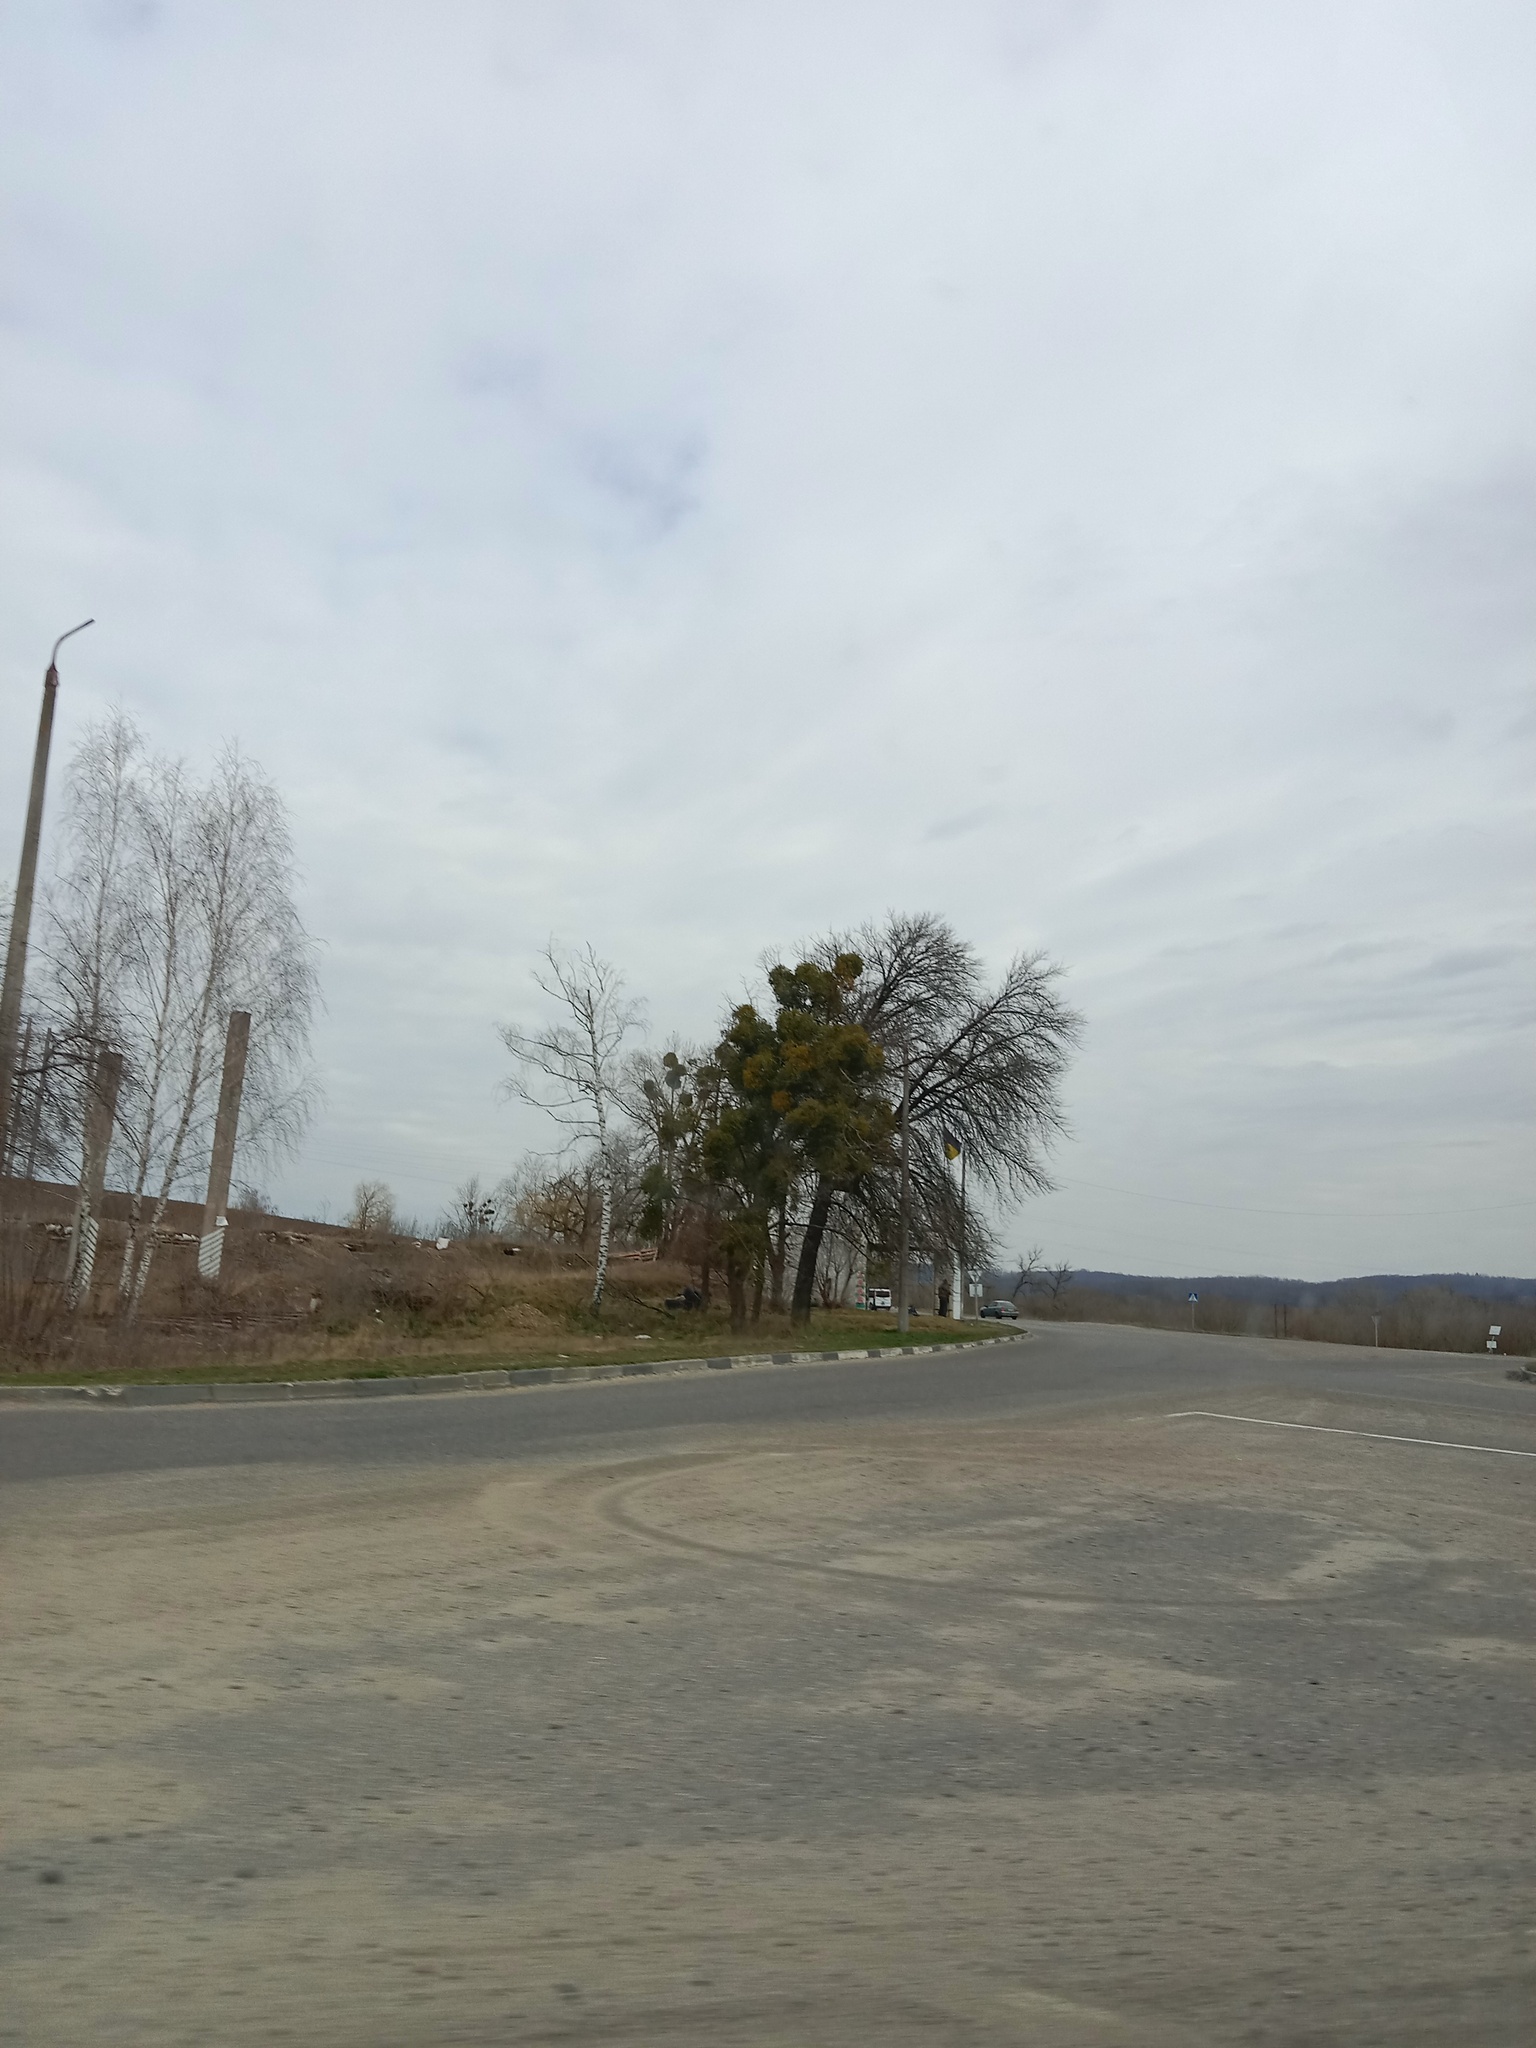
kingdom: Plantae
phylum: Tracheophyta
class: Magnoliopsida
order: Santalales
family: Viscaceae
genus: Viscum
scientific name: Viscum album
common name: Mistletoe
